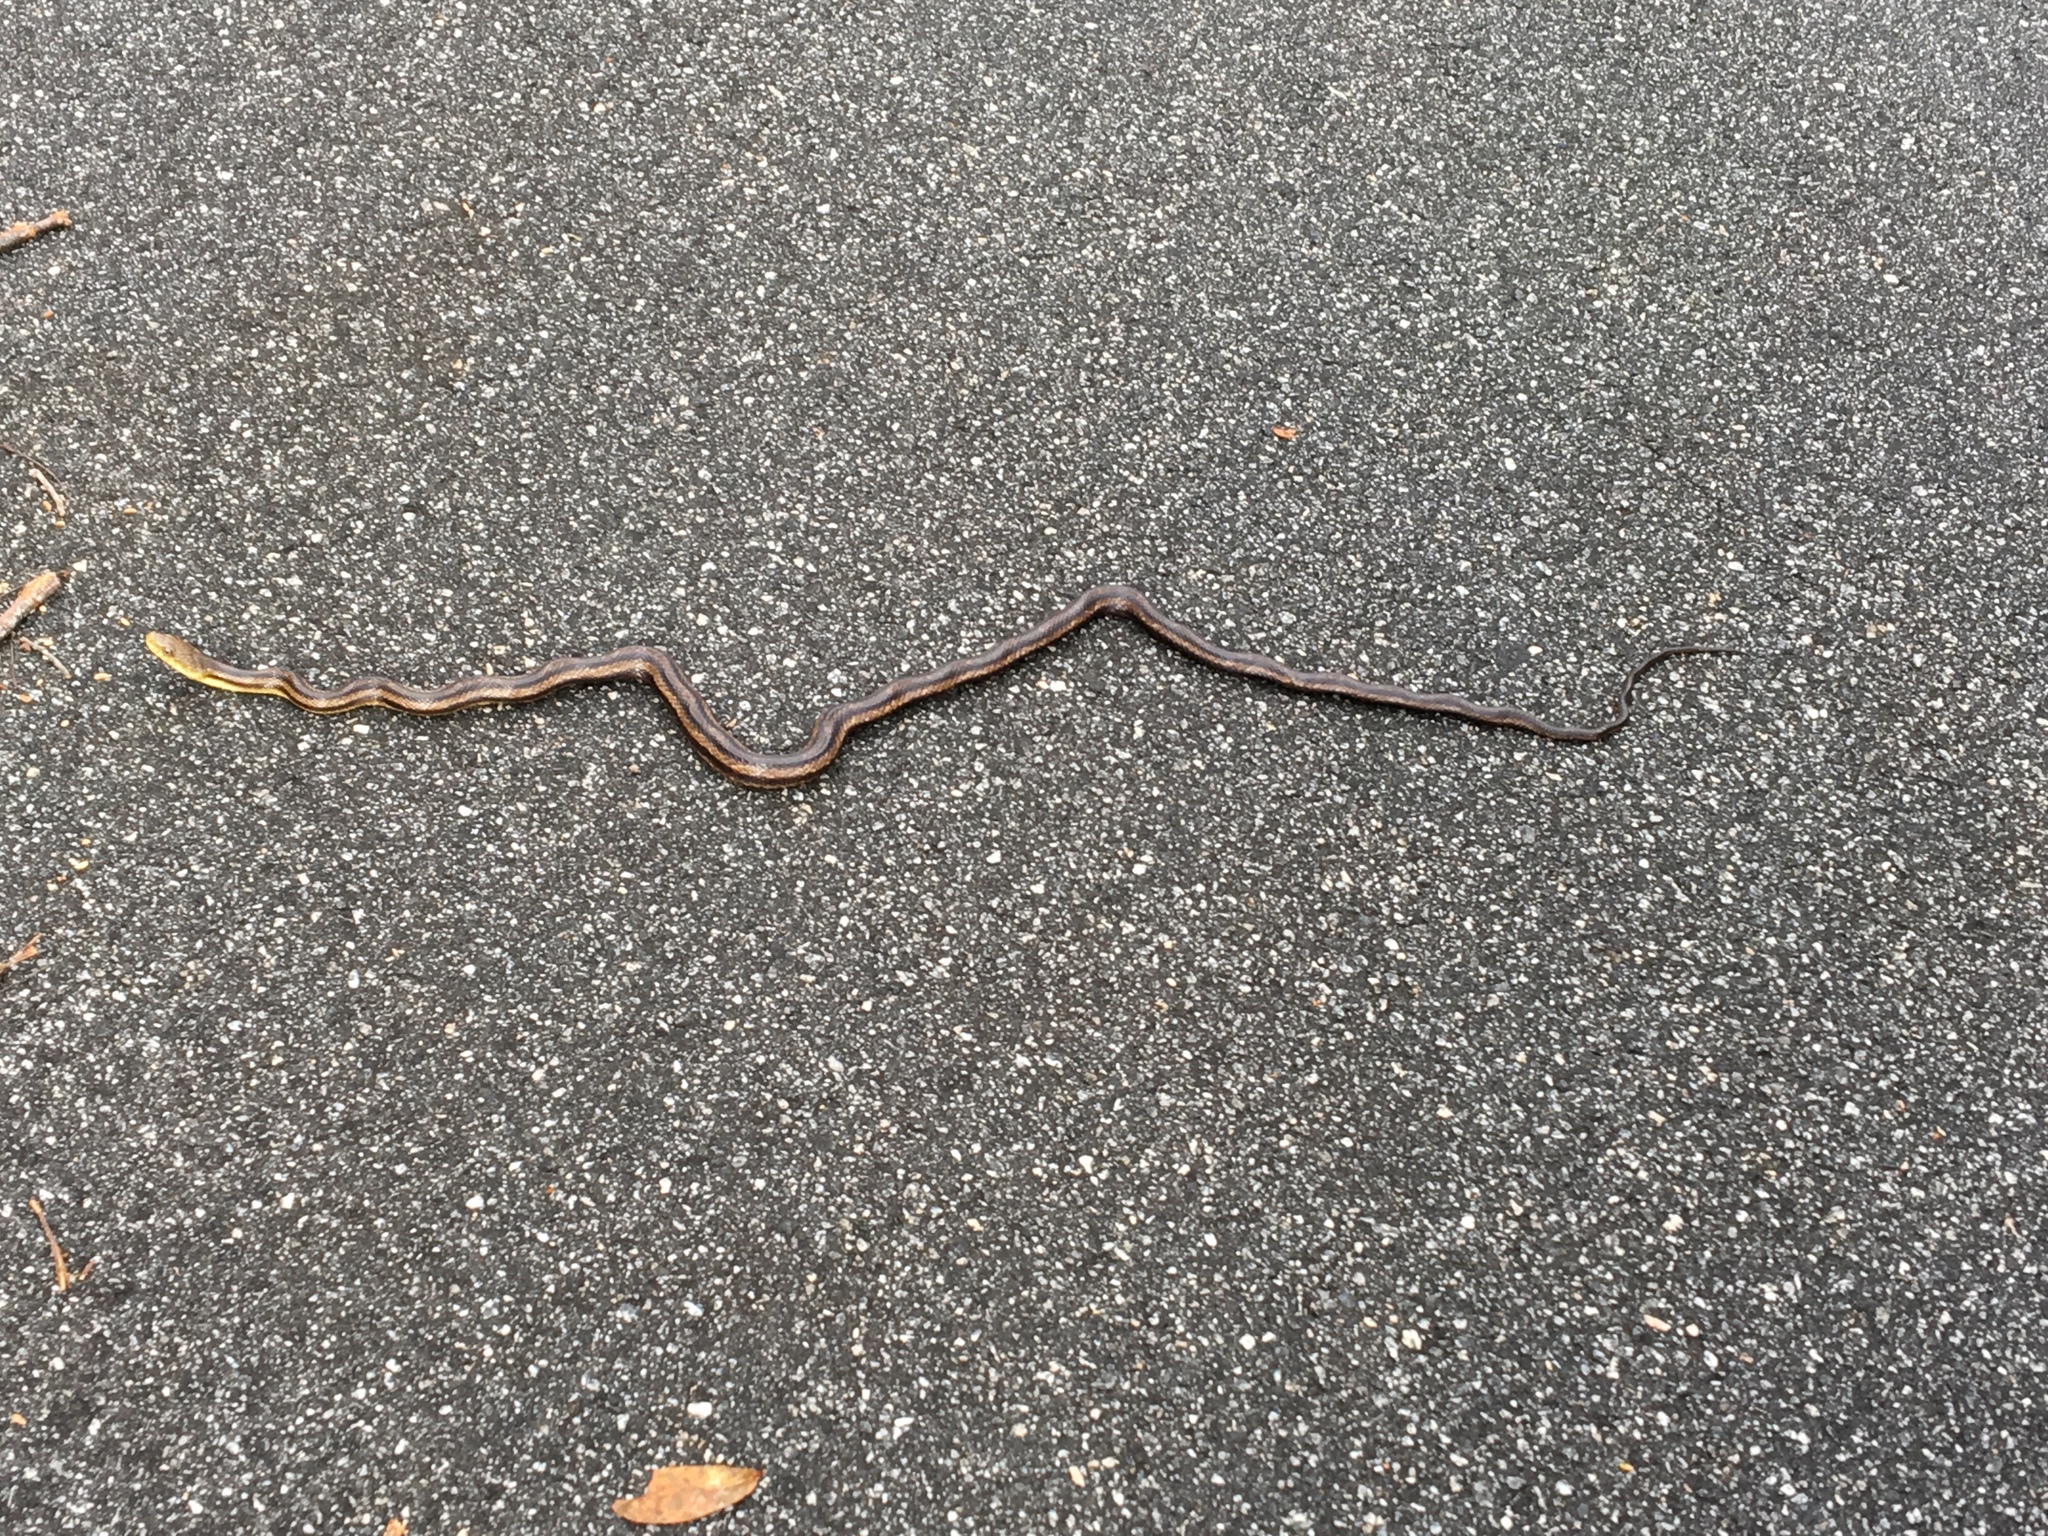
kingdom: Animalia
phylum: Chordata
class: Squamata
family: Colubridae
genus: Pantherophis
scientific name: Pantherophis alleghaniensis
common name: Eastern rat snake
